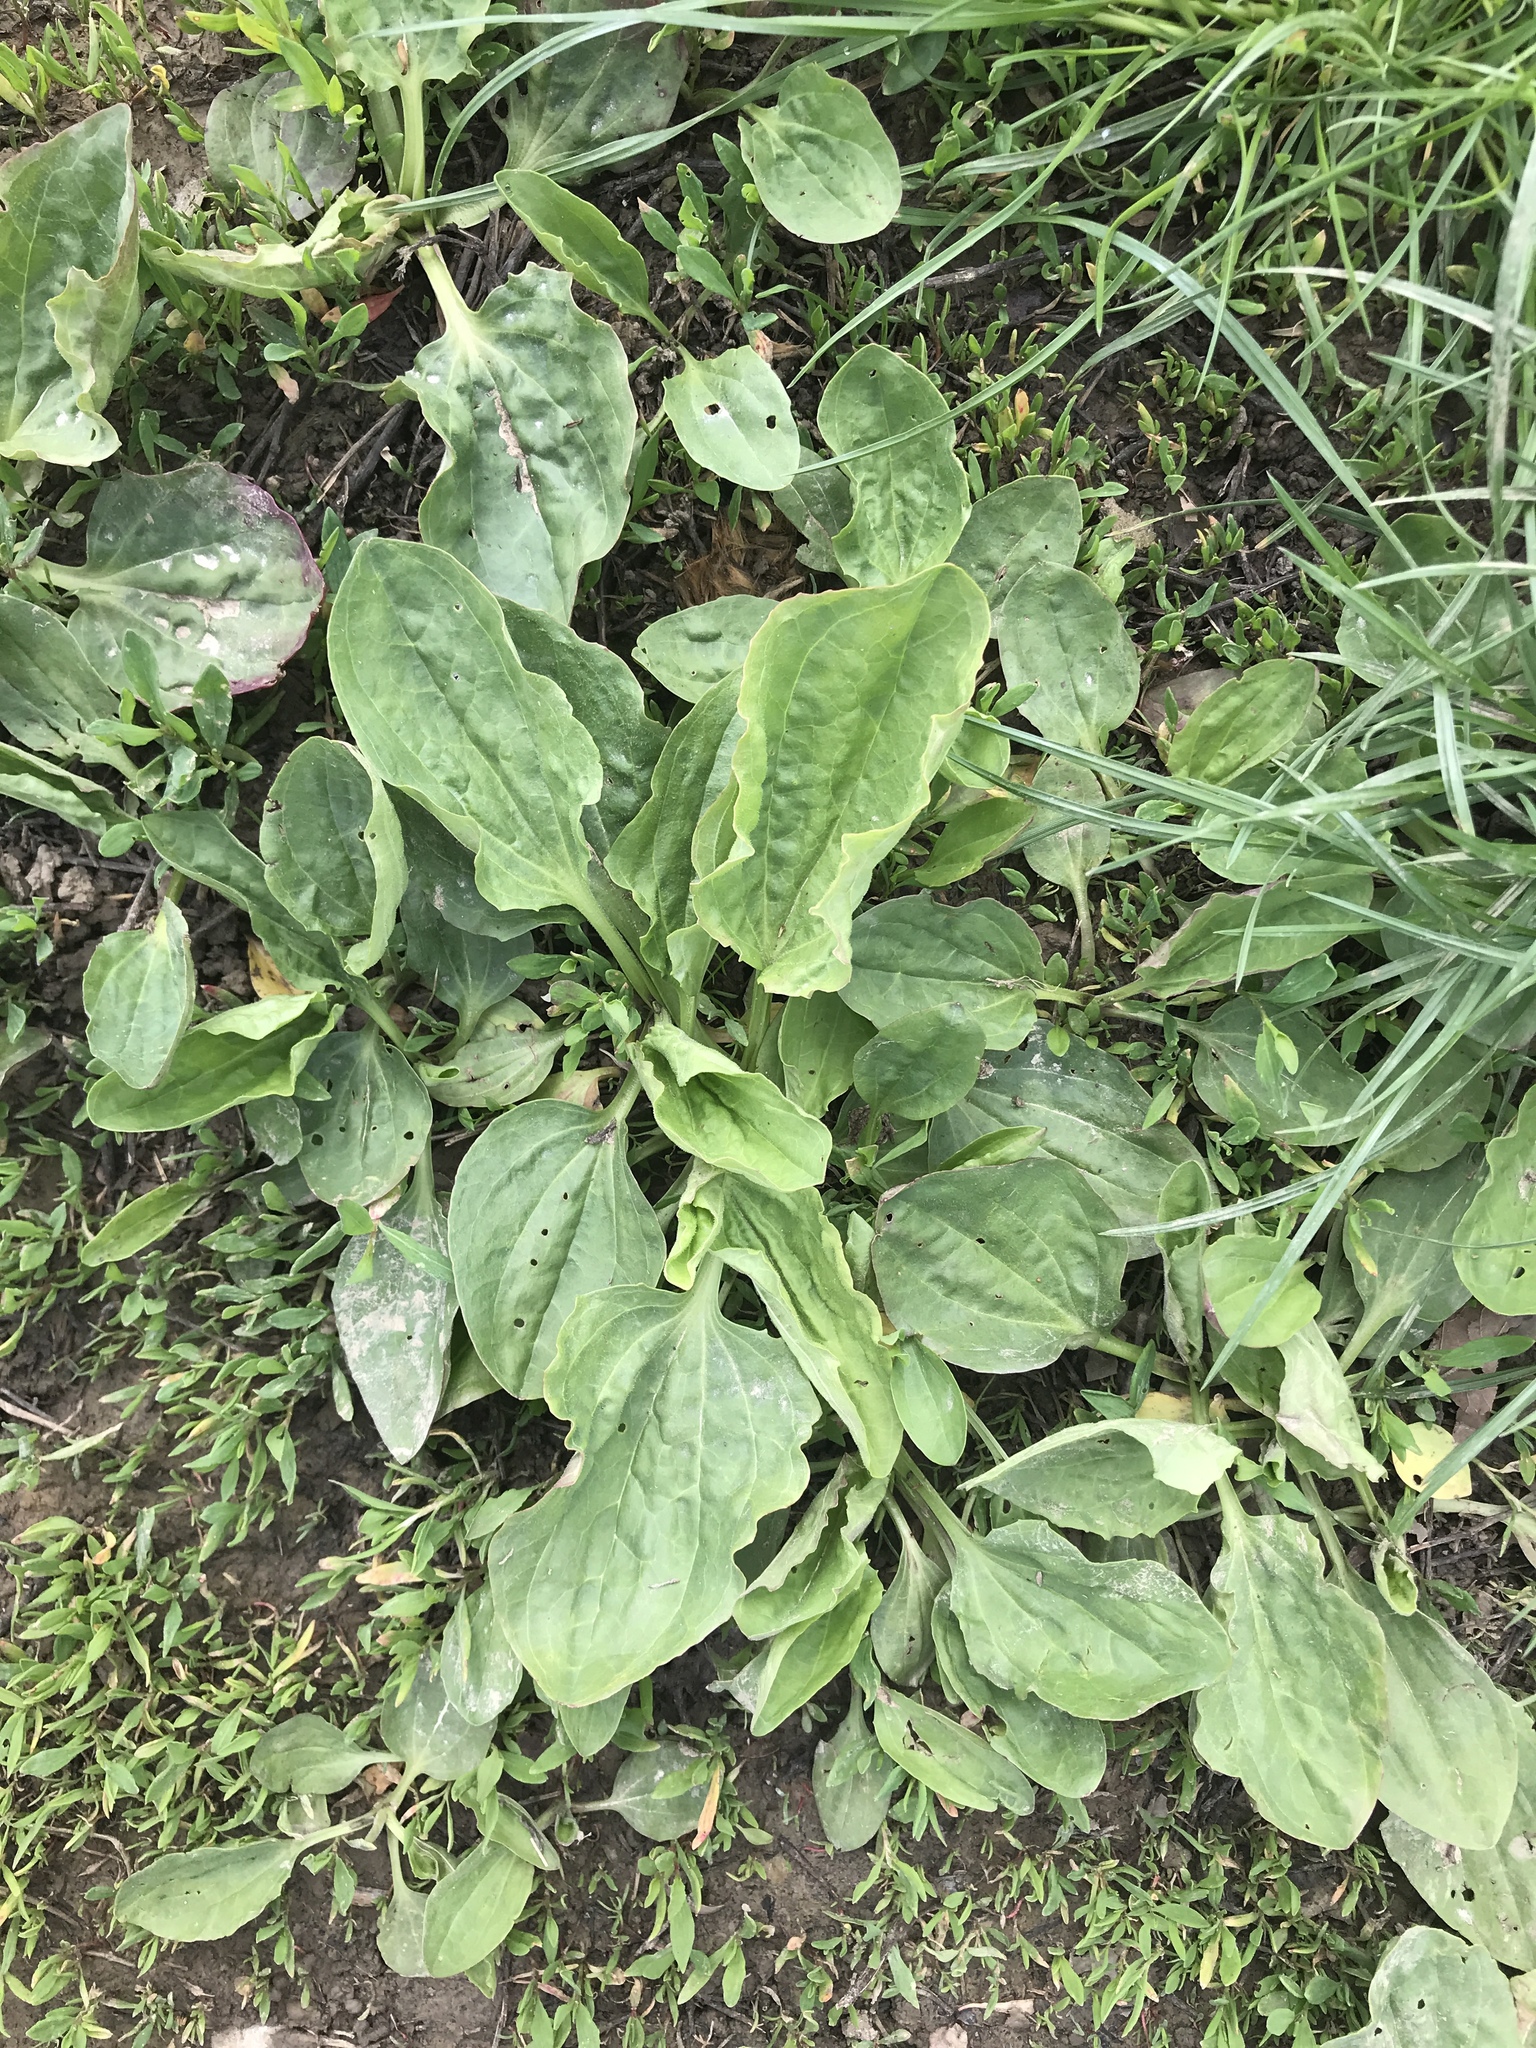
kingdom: Plantae
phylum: Tracheophyta
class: Magnoliopsida
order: Lamiales
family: Plantaginaceae
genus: Plantago
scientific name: Plantago major
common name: Common plantain
